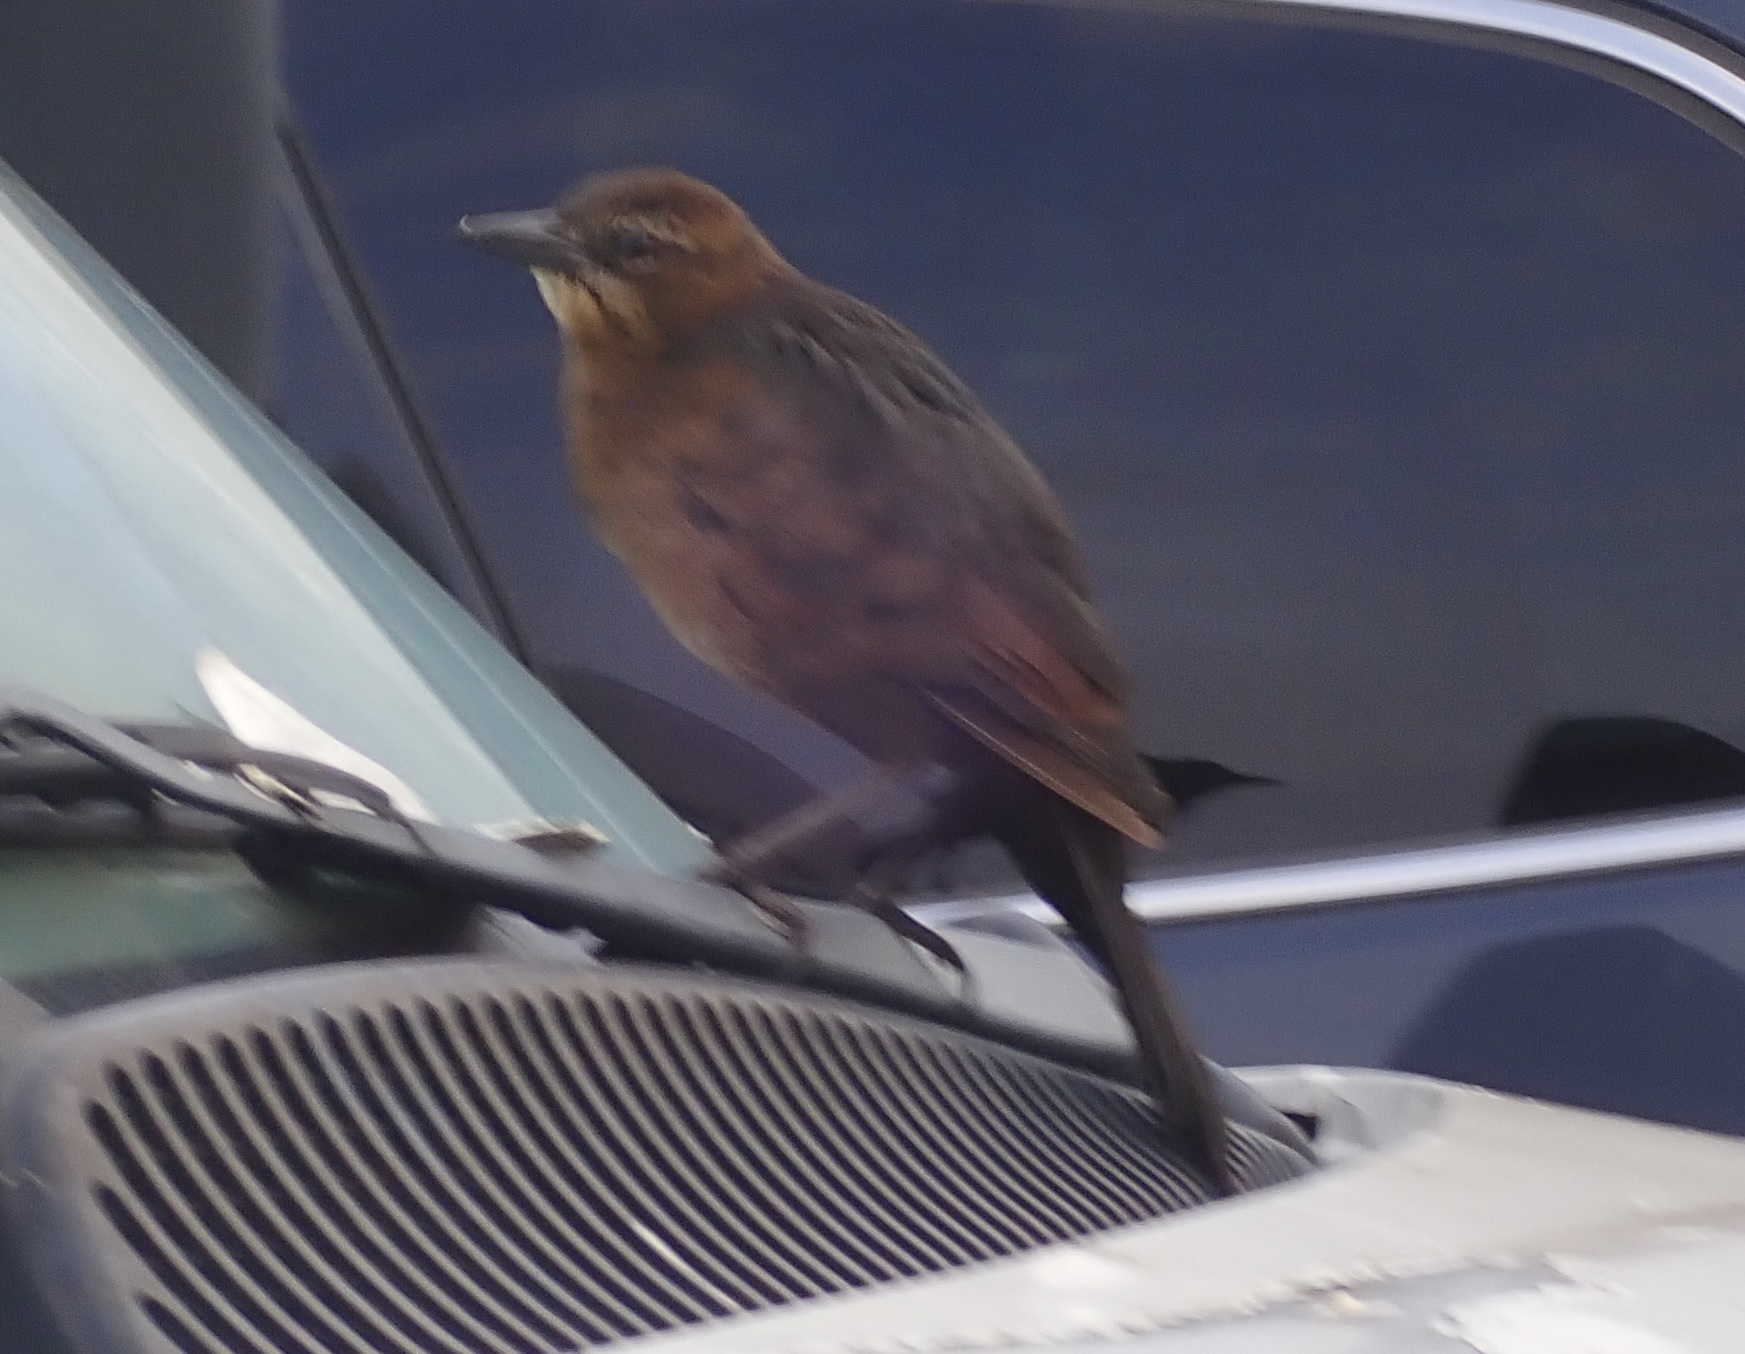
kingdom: Animalia
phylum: Chordata
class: Aves
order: Passeriformes
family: Icteridae
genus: Quiscalus
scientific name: Quiscalus mexicanus
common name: Great-tailed grackle
